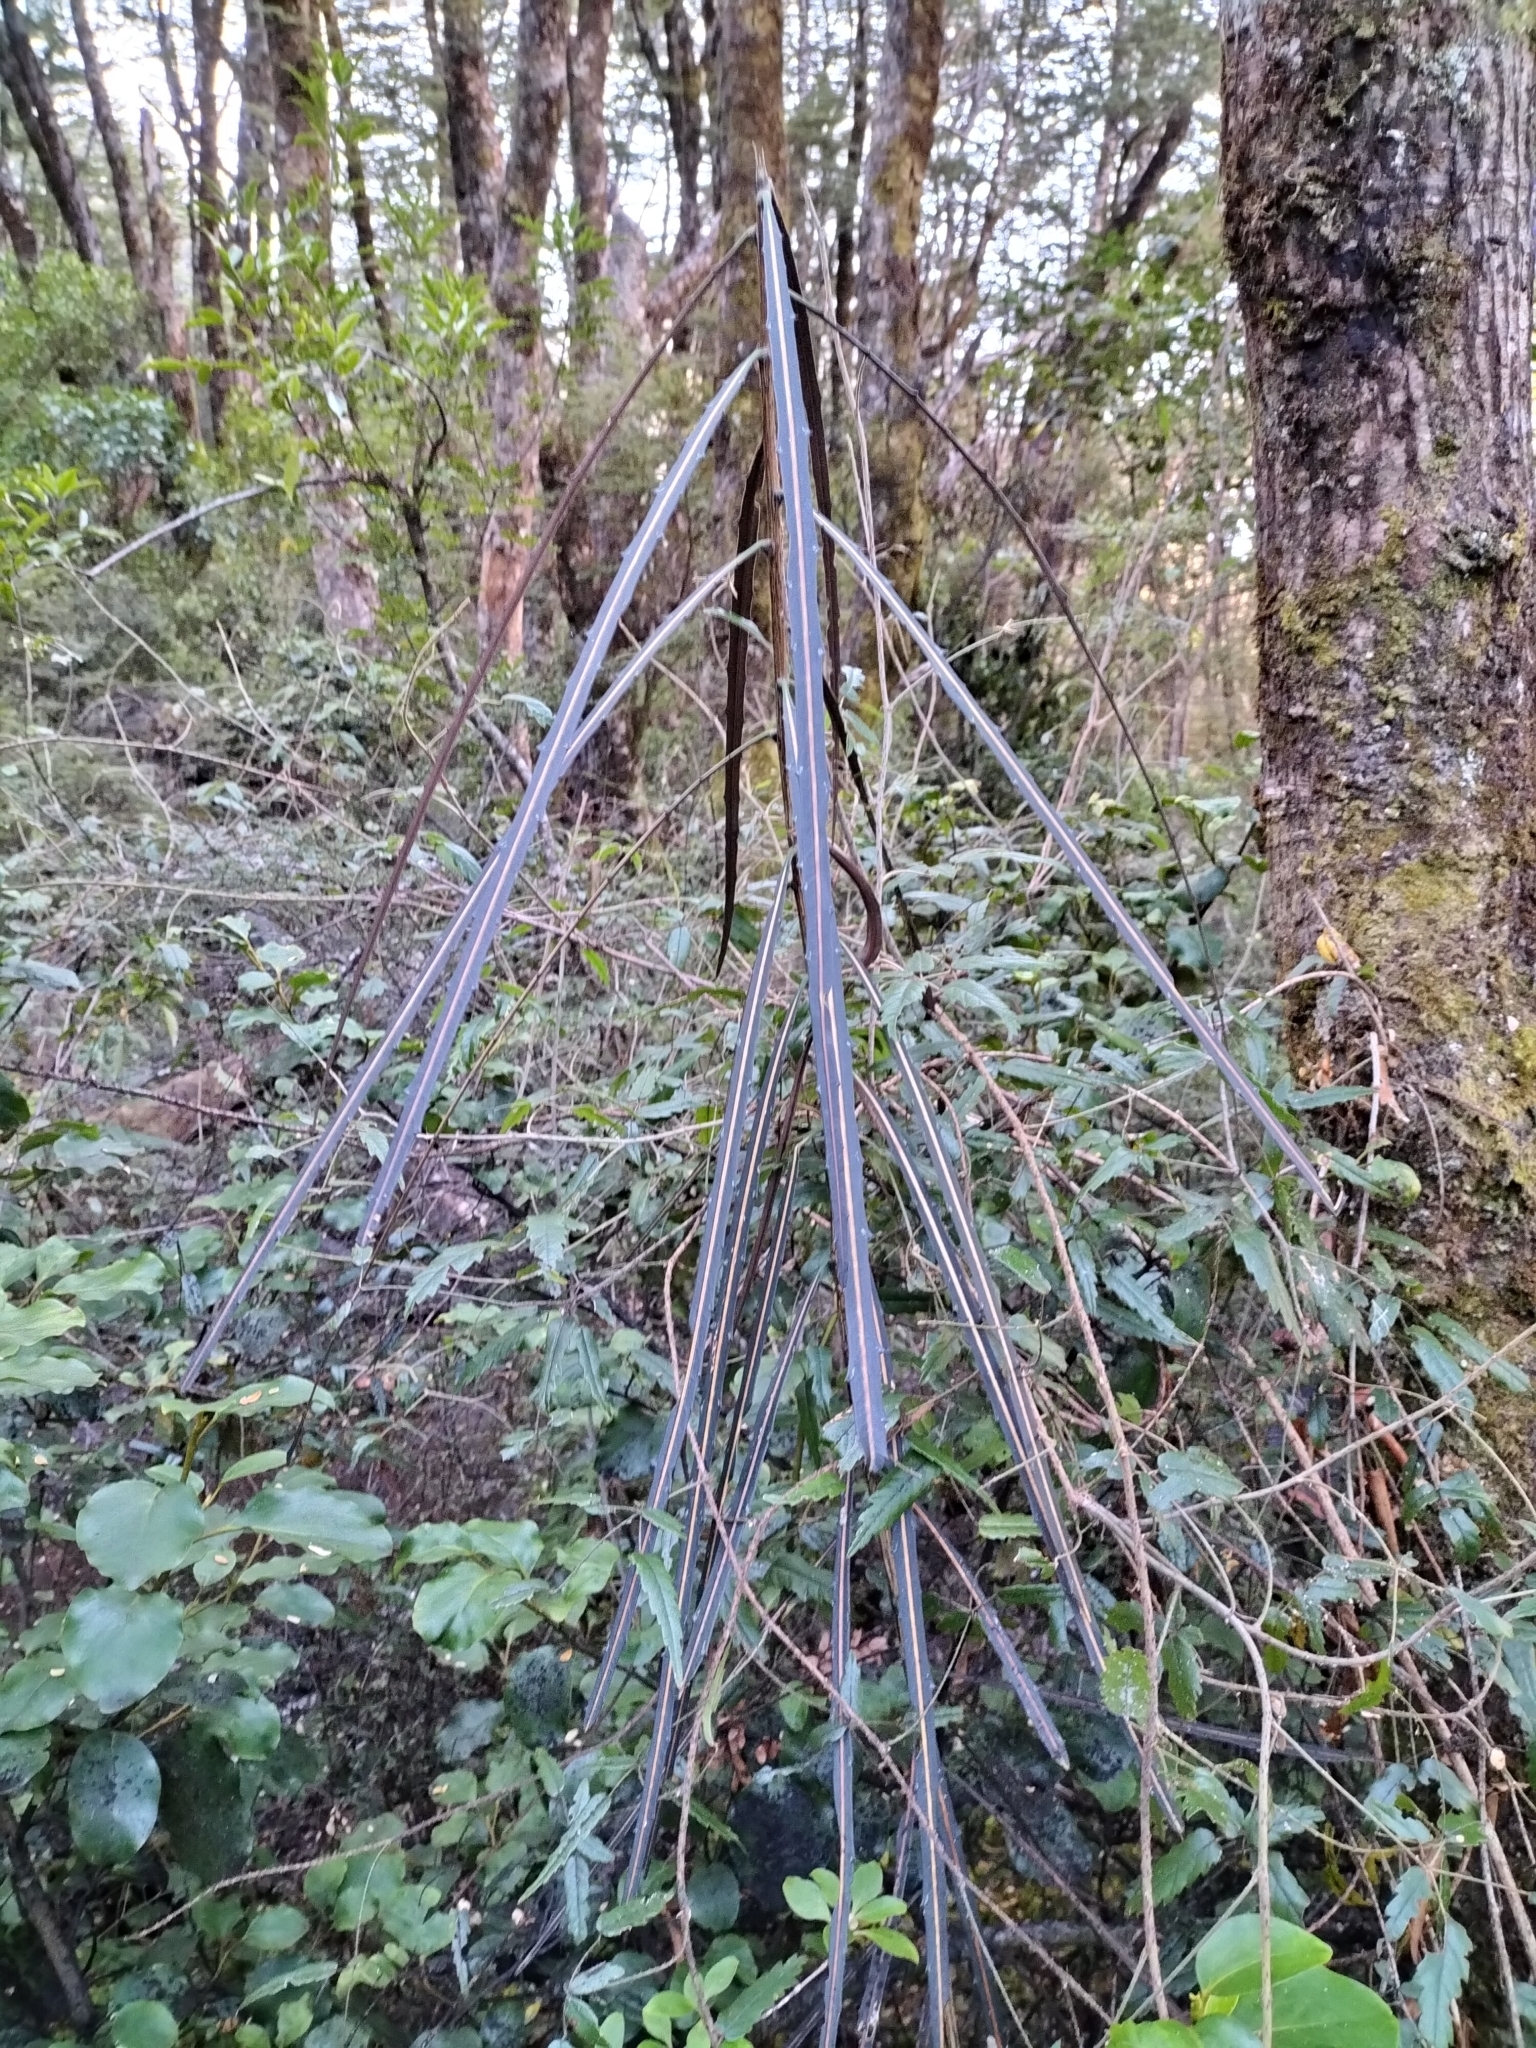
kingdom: Plantae
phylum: Tracheophyta
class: Magnoliopsida
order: Apiales
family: Araliaceae
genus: Pseudopanax
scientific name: Pseudopanax crassifolius
